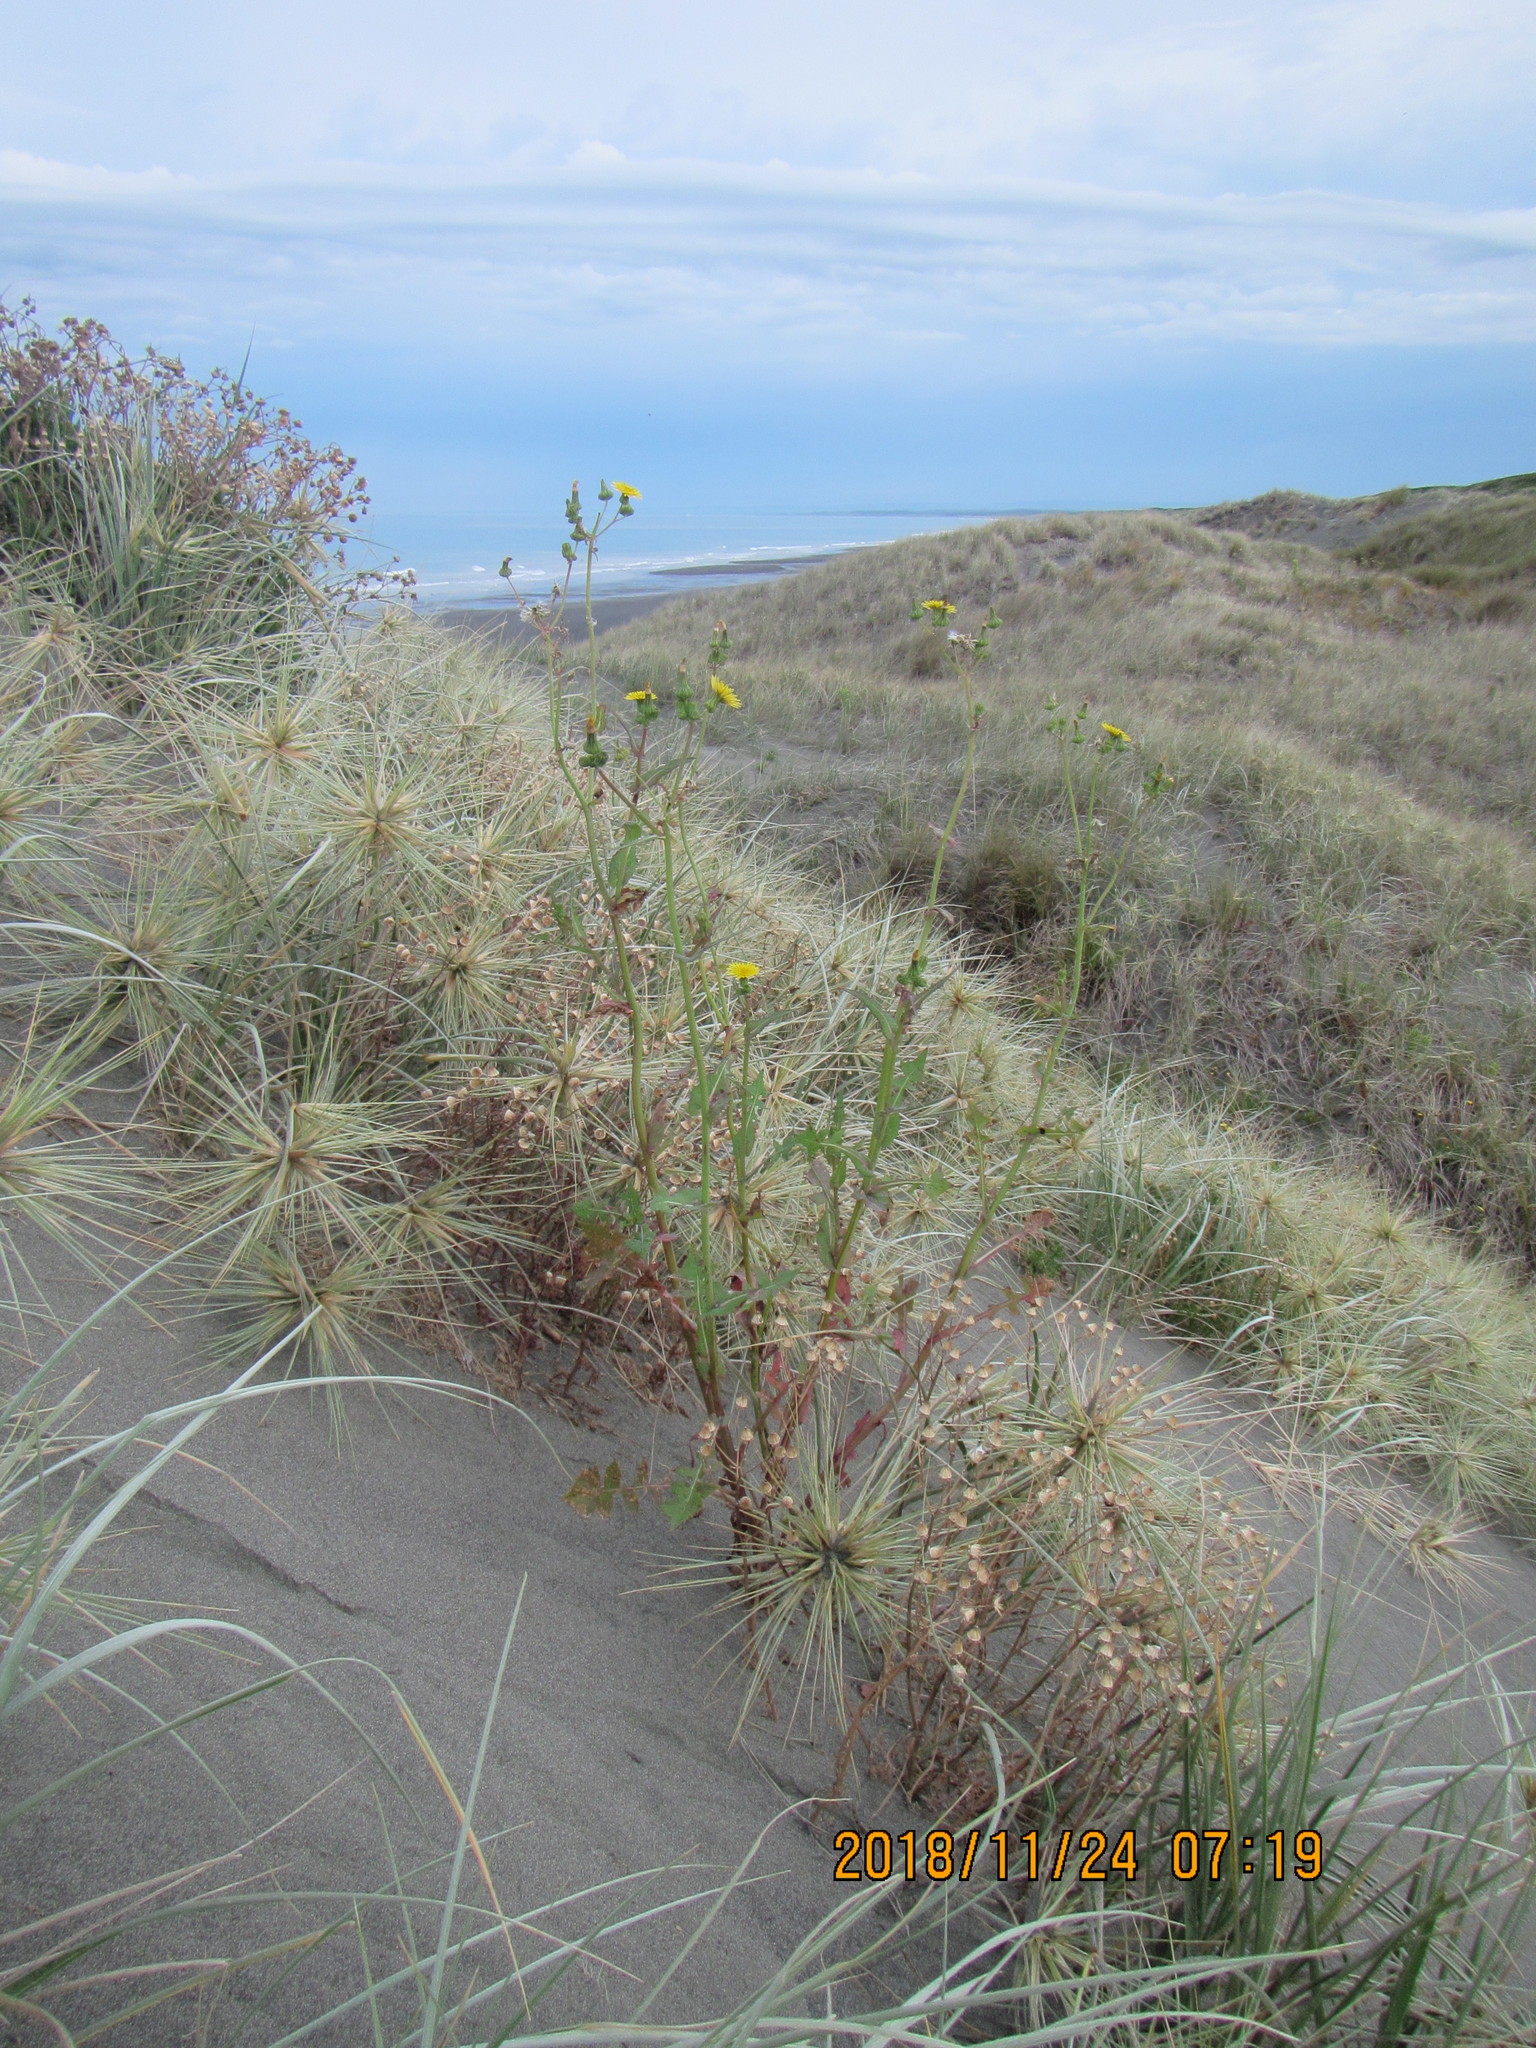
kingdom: Plantae
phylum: Tracheophyta
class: Magnoliopsida
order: Asterales
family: Asteraceae
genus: Sonchus
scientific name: Sonchus oleraceus
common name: Common sowthistle
